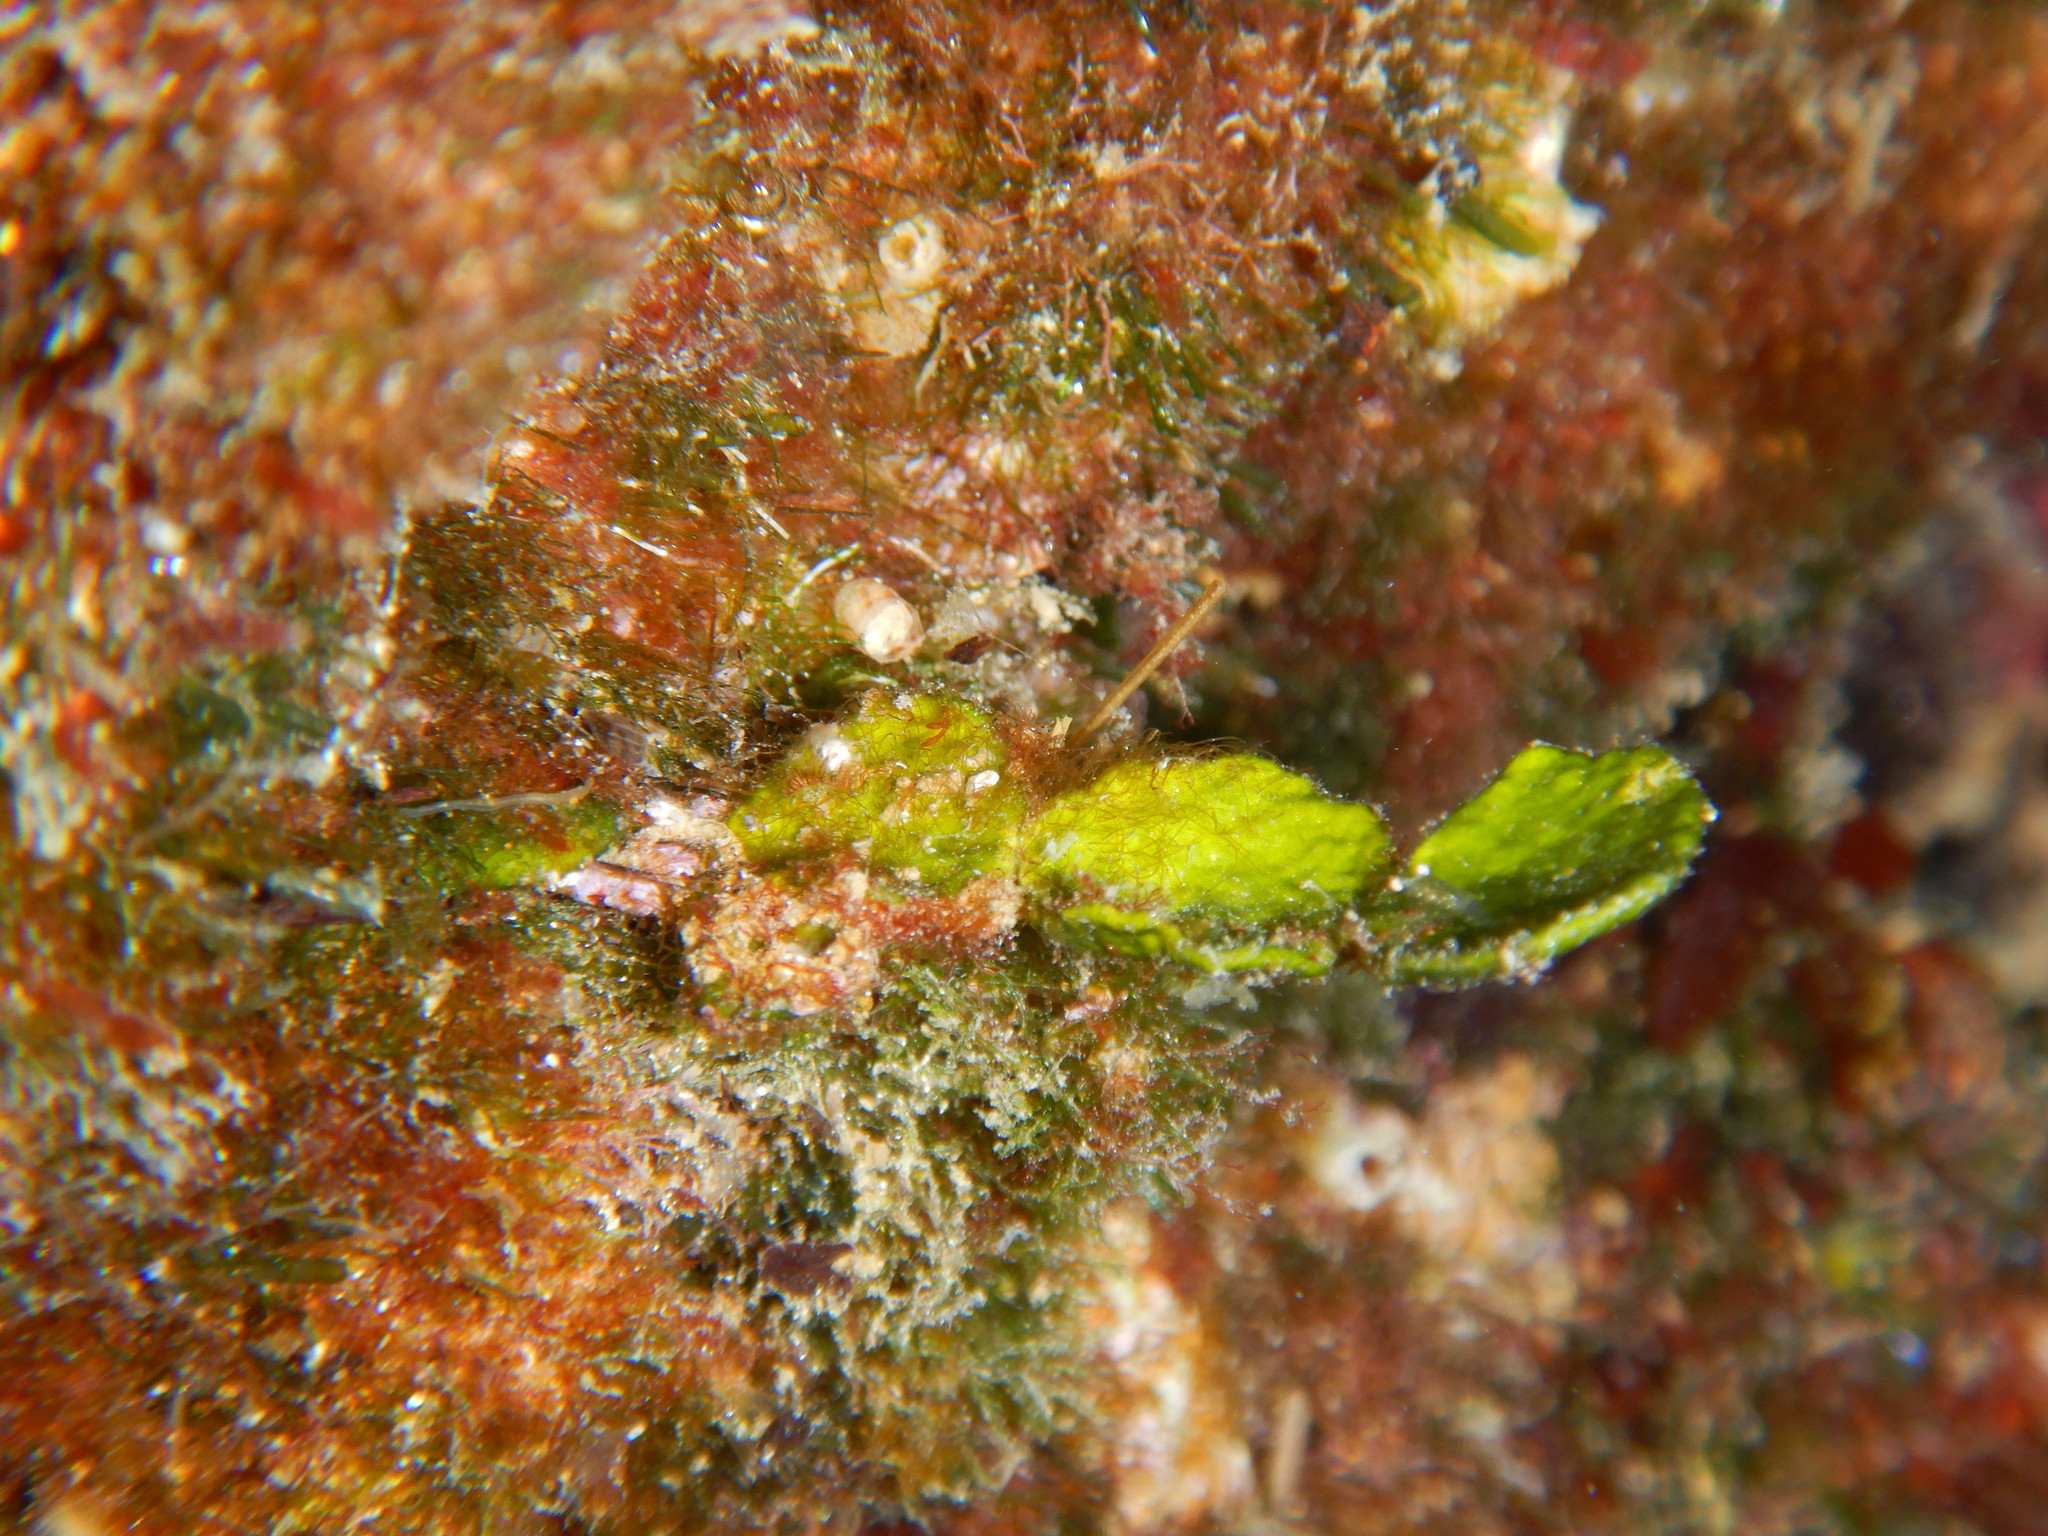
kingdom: Plantae
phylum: Chlorophyta
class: Ulvophyceae
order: Bryopsidales
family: Halimedaceae
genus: Halimeda
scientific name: Halimeda tuna
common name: Stalked lettuce leaf algae
